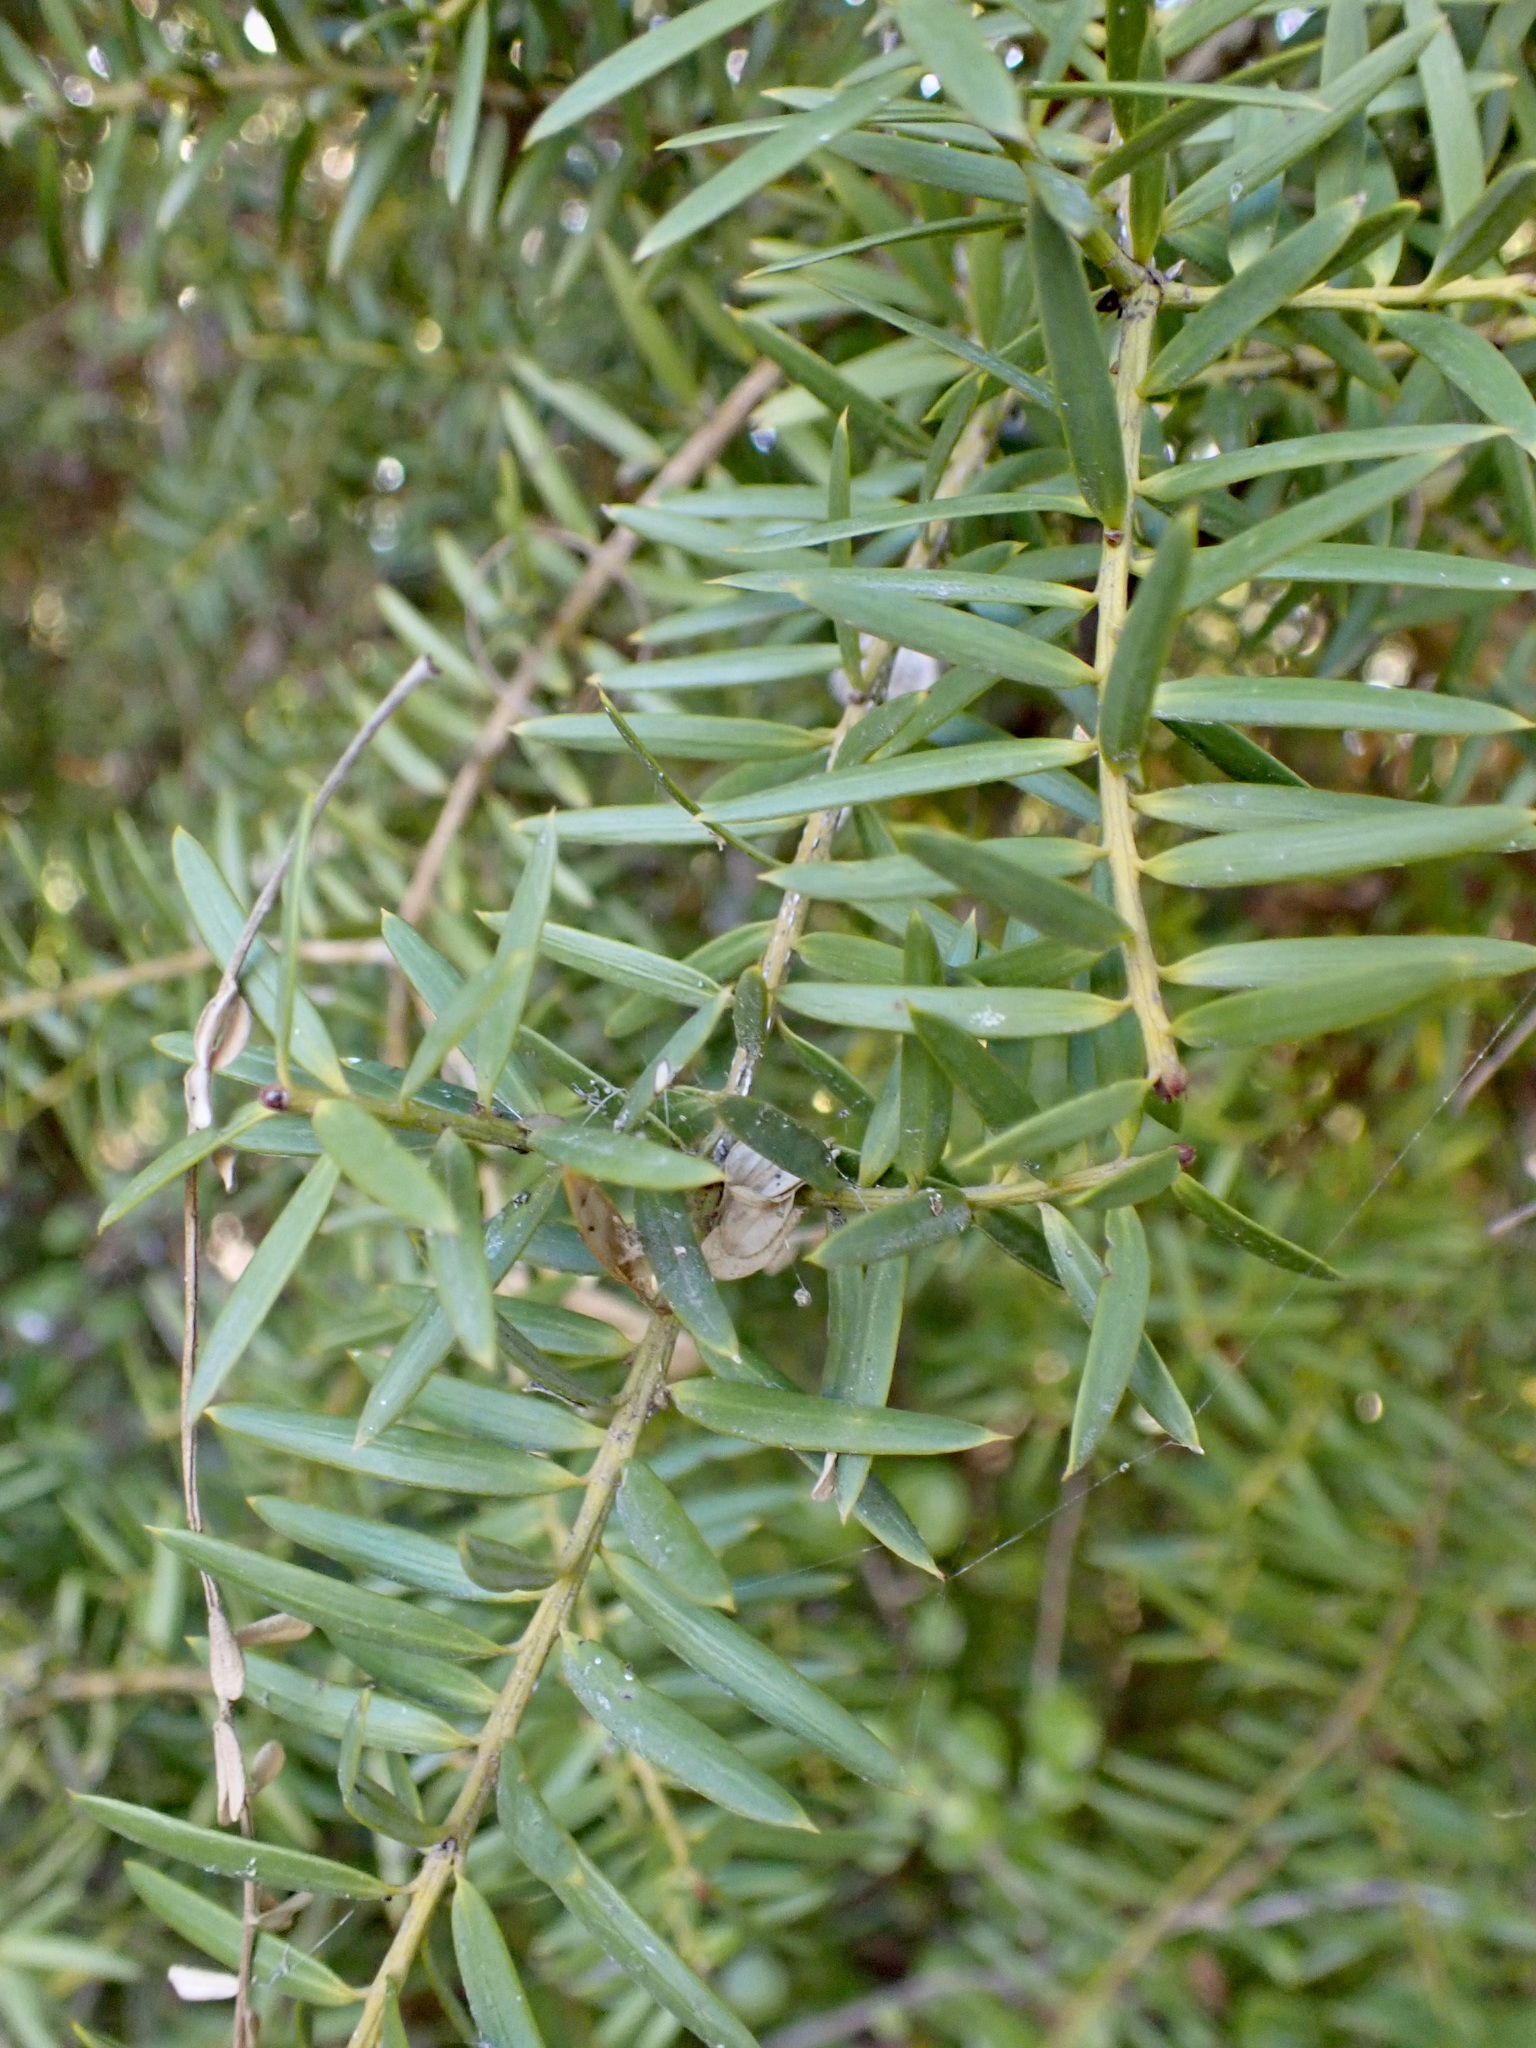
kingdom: Plantae
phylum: Tracheophyta
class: Pinopsida
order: Pinales
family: Podocarpaceae
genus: Podocarpus
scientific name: Podocarpus totara
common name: Totara
